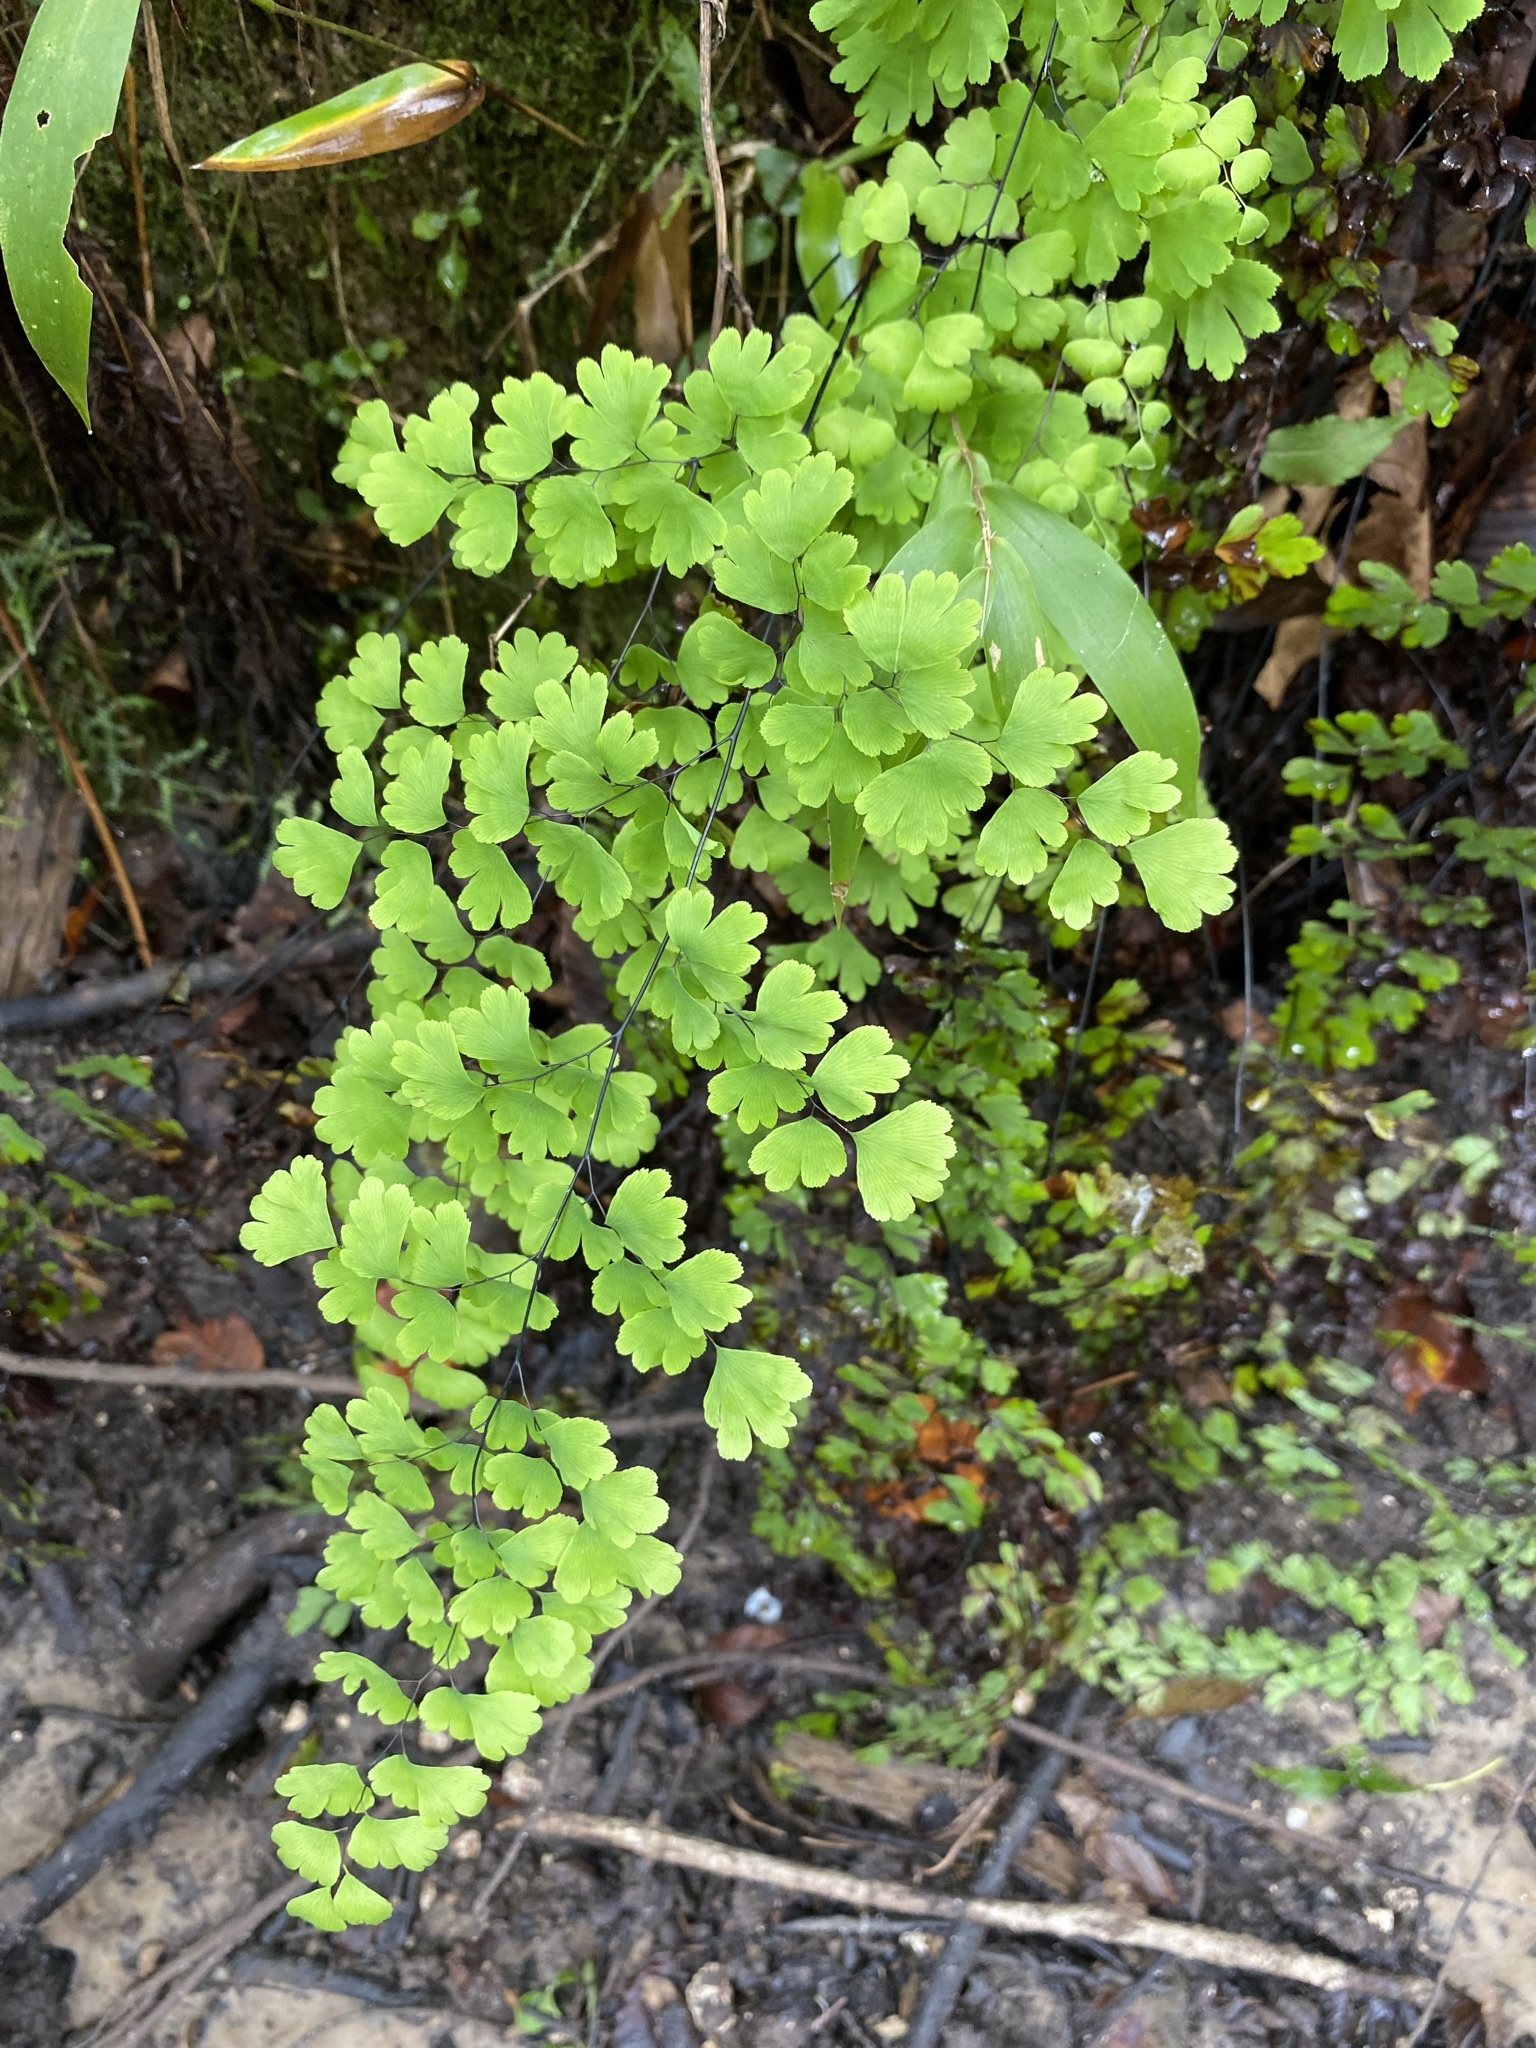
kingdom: Plantae
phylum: Tracheophyta
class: Polypodiopsida
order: Polypodiales
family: Pteridaceae
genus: Adiantum
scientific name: Adiantum capillus-veneris
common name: Maidenhair fern
